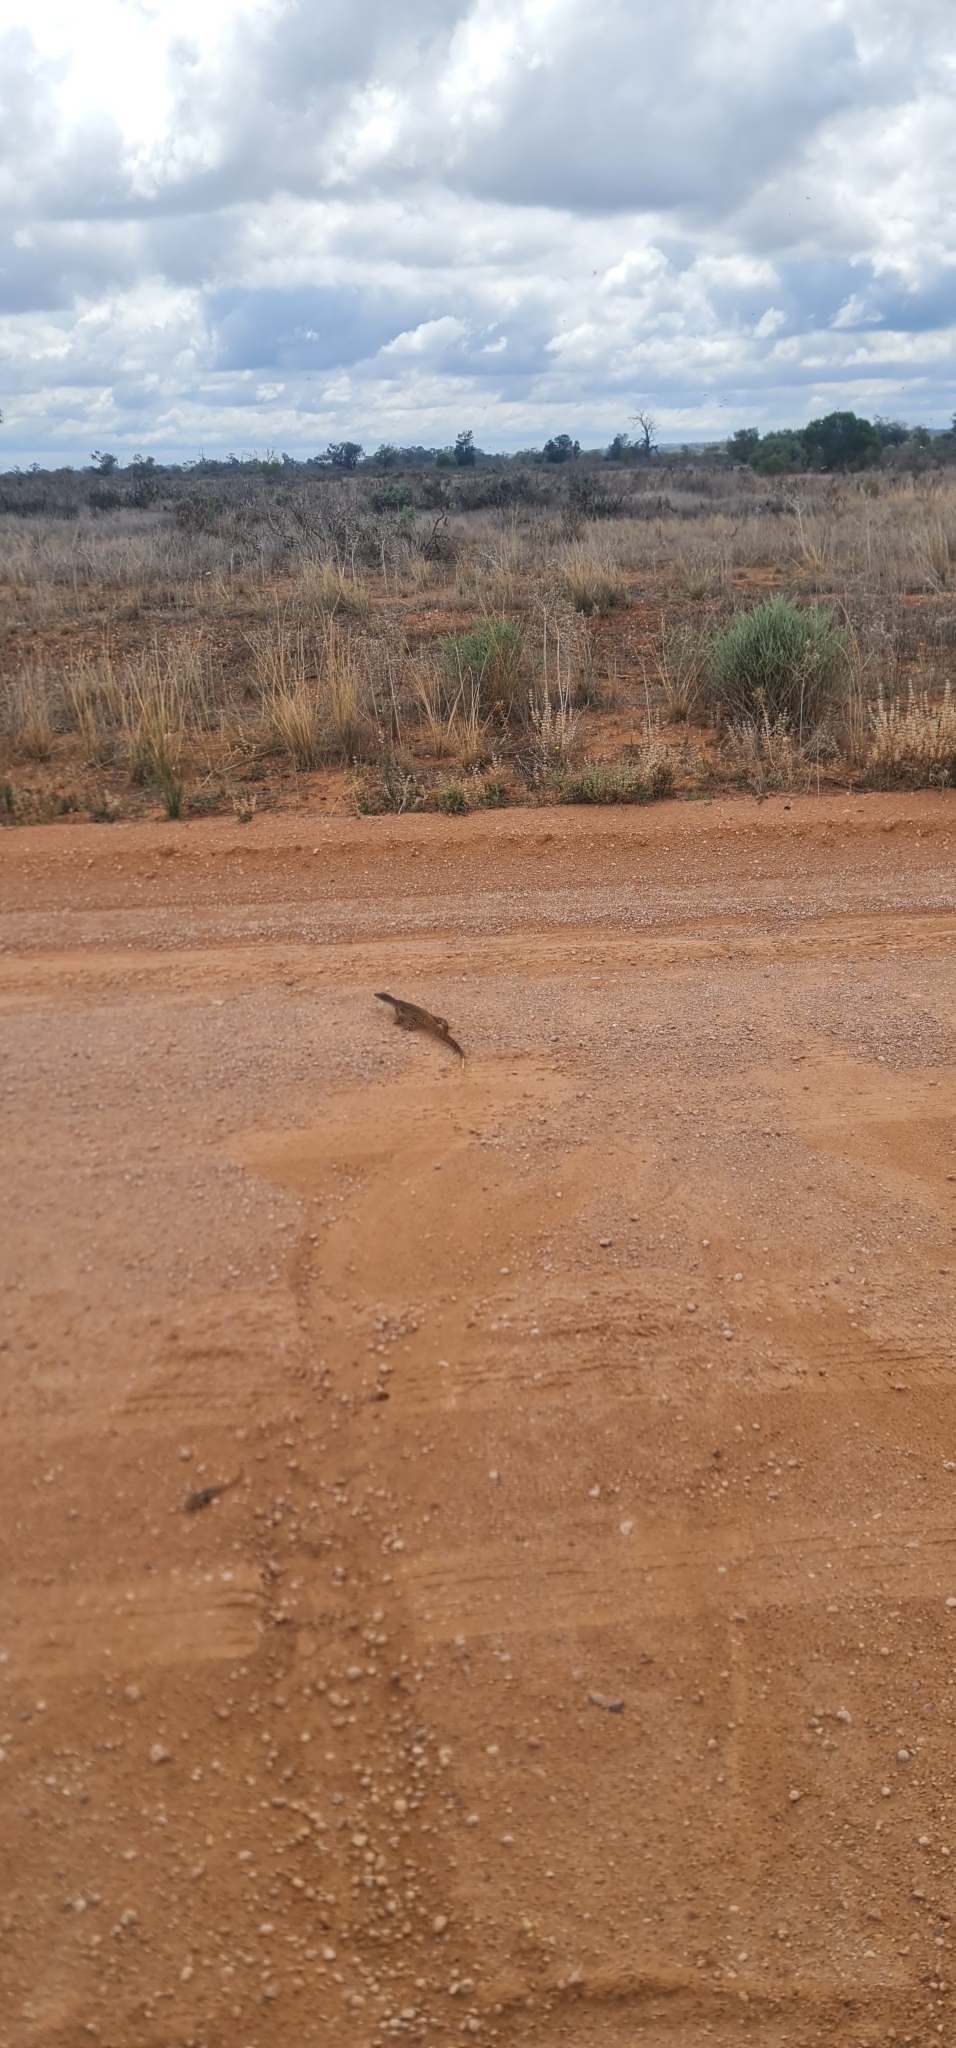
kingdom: Animalia
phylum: Chordata
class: Squamata
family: Varanidae
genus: Varanus
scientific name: Varanus gouldii
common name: Gould's goanna
